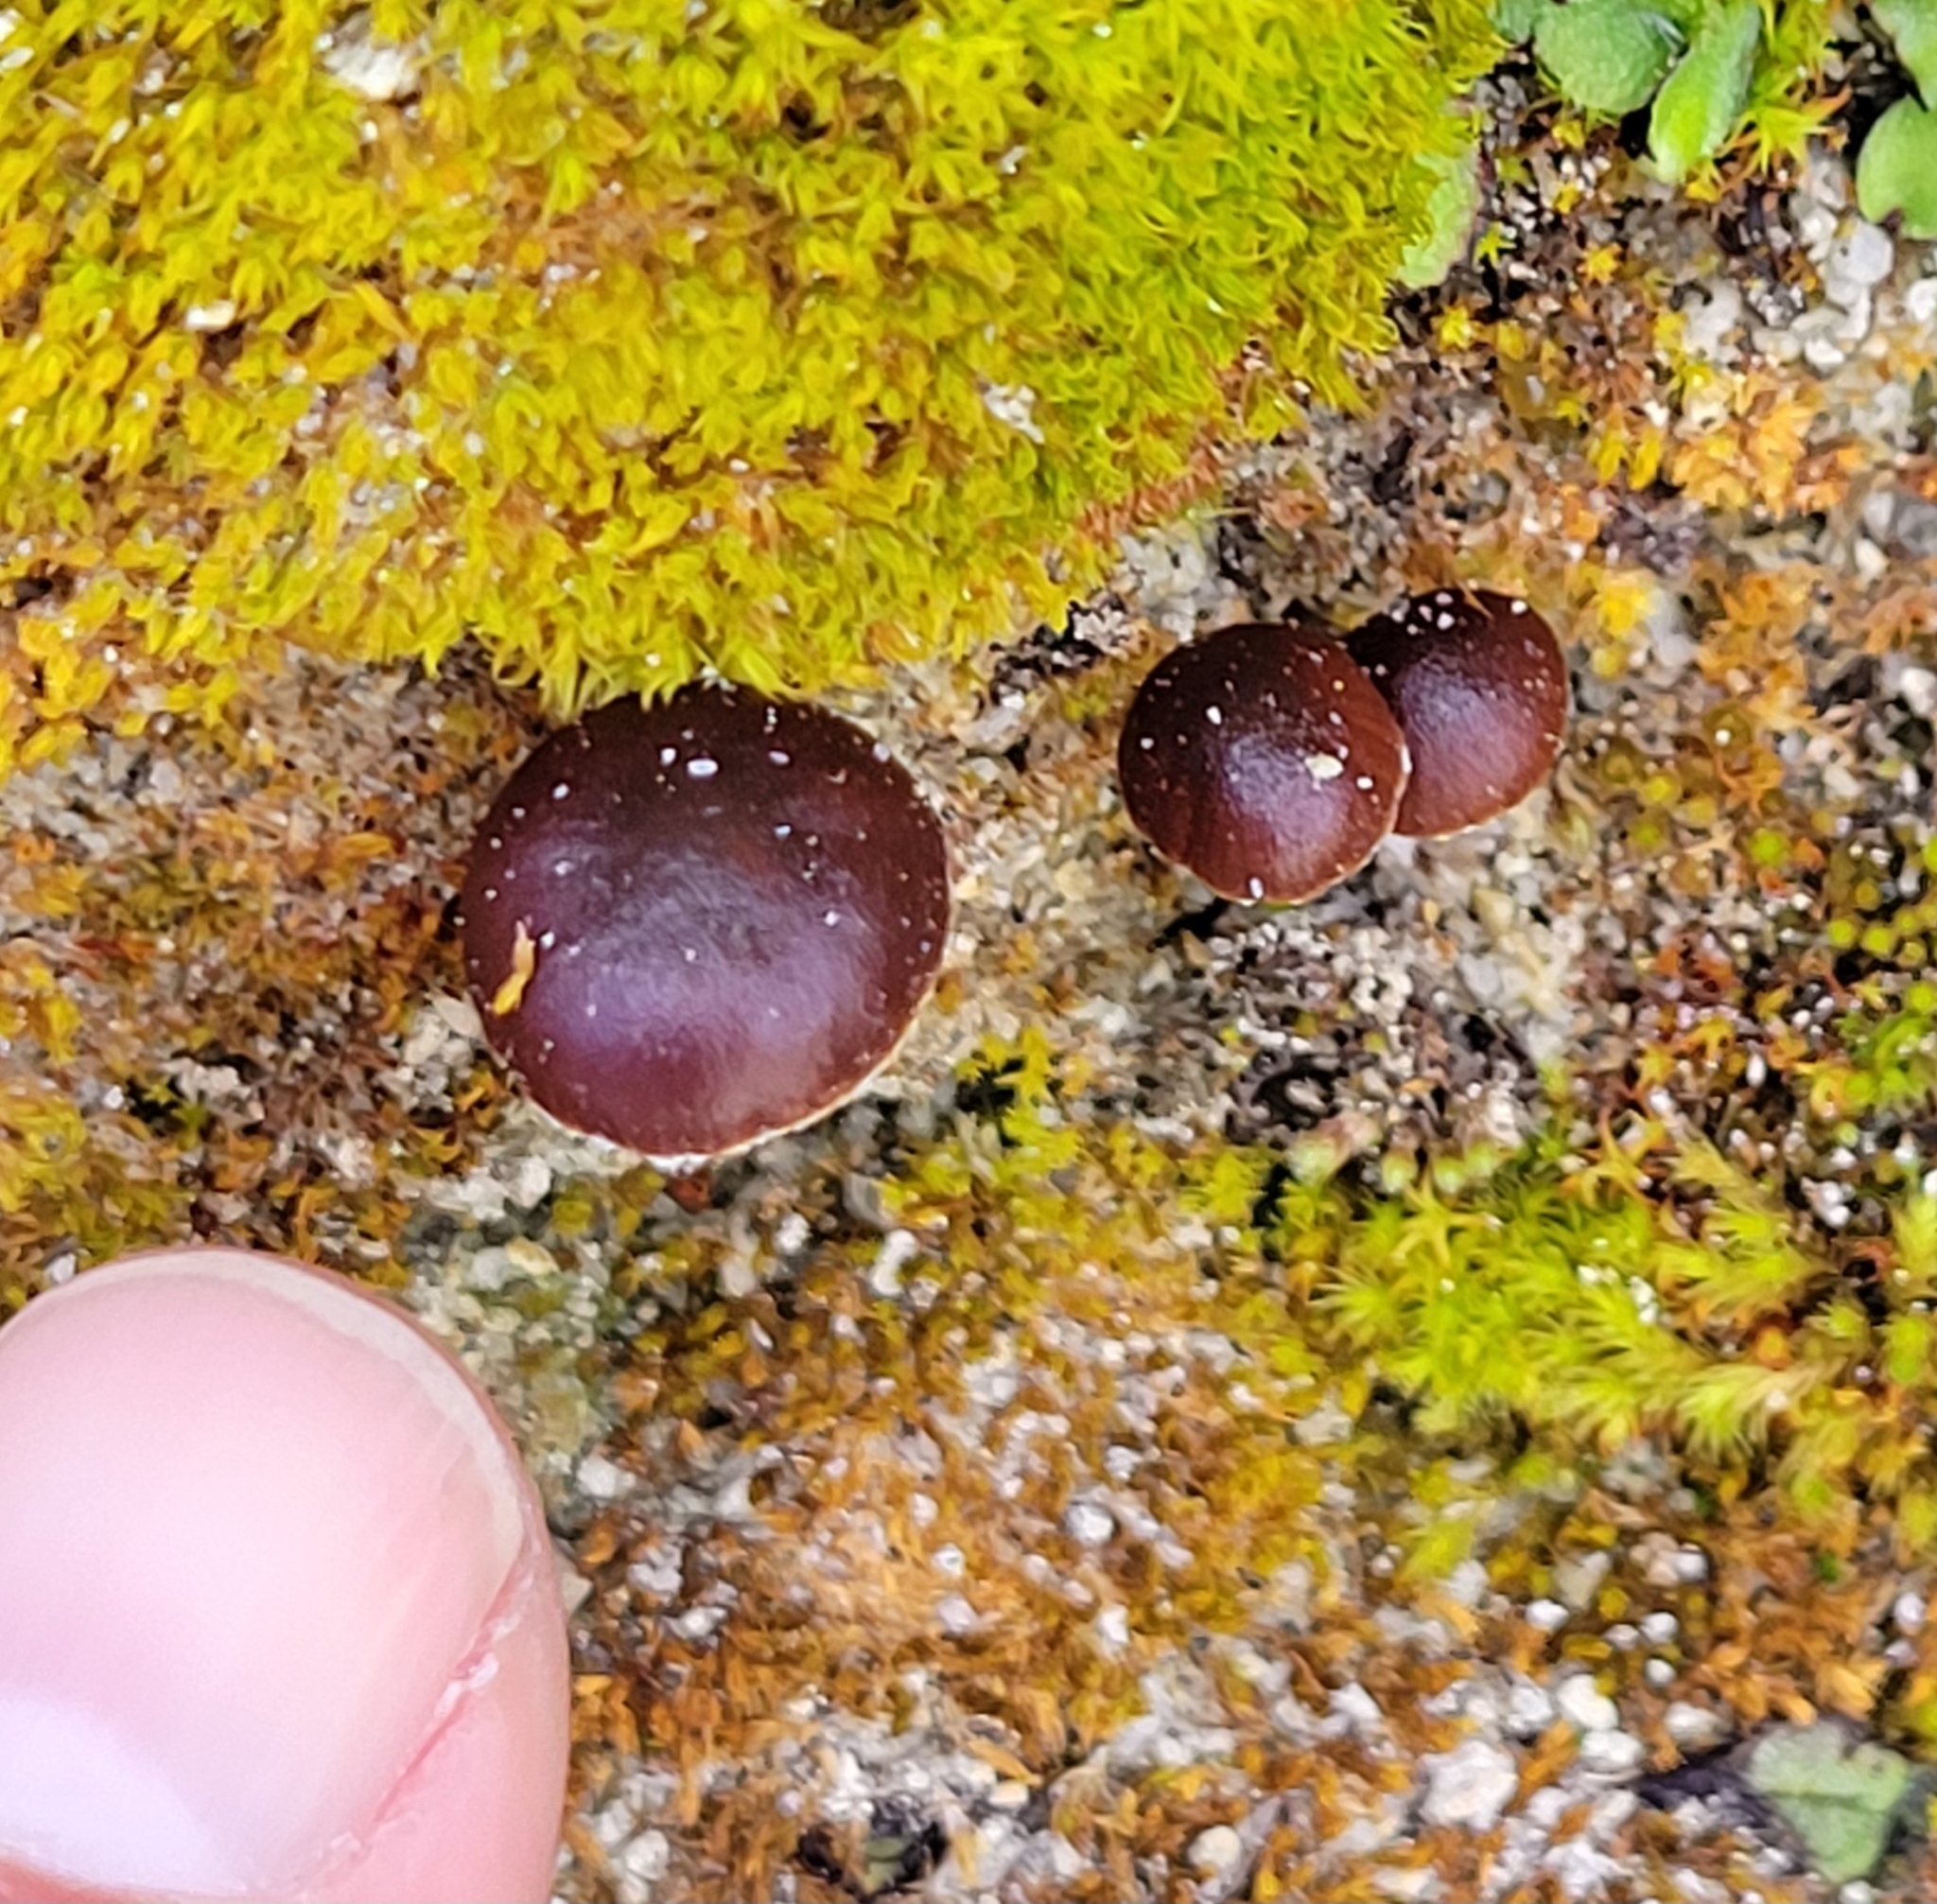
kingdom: Fungi
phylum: Basidiomycota
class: Agaricomycetes
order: Agaricales
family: Strophariaceae
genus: Deconica
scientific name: Deconica montana
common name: Mountain moss deconica
